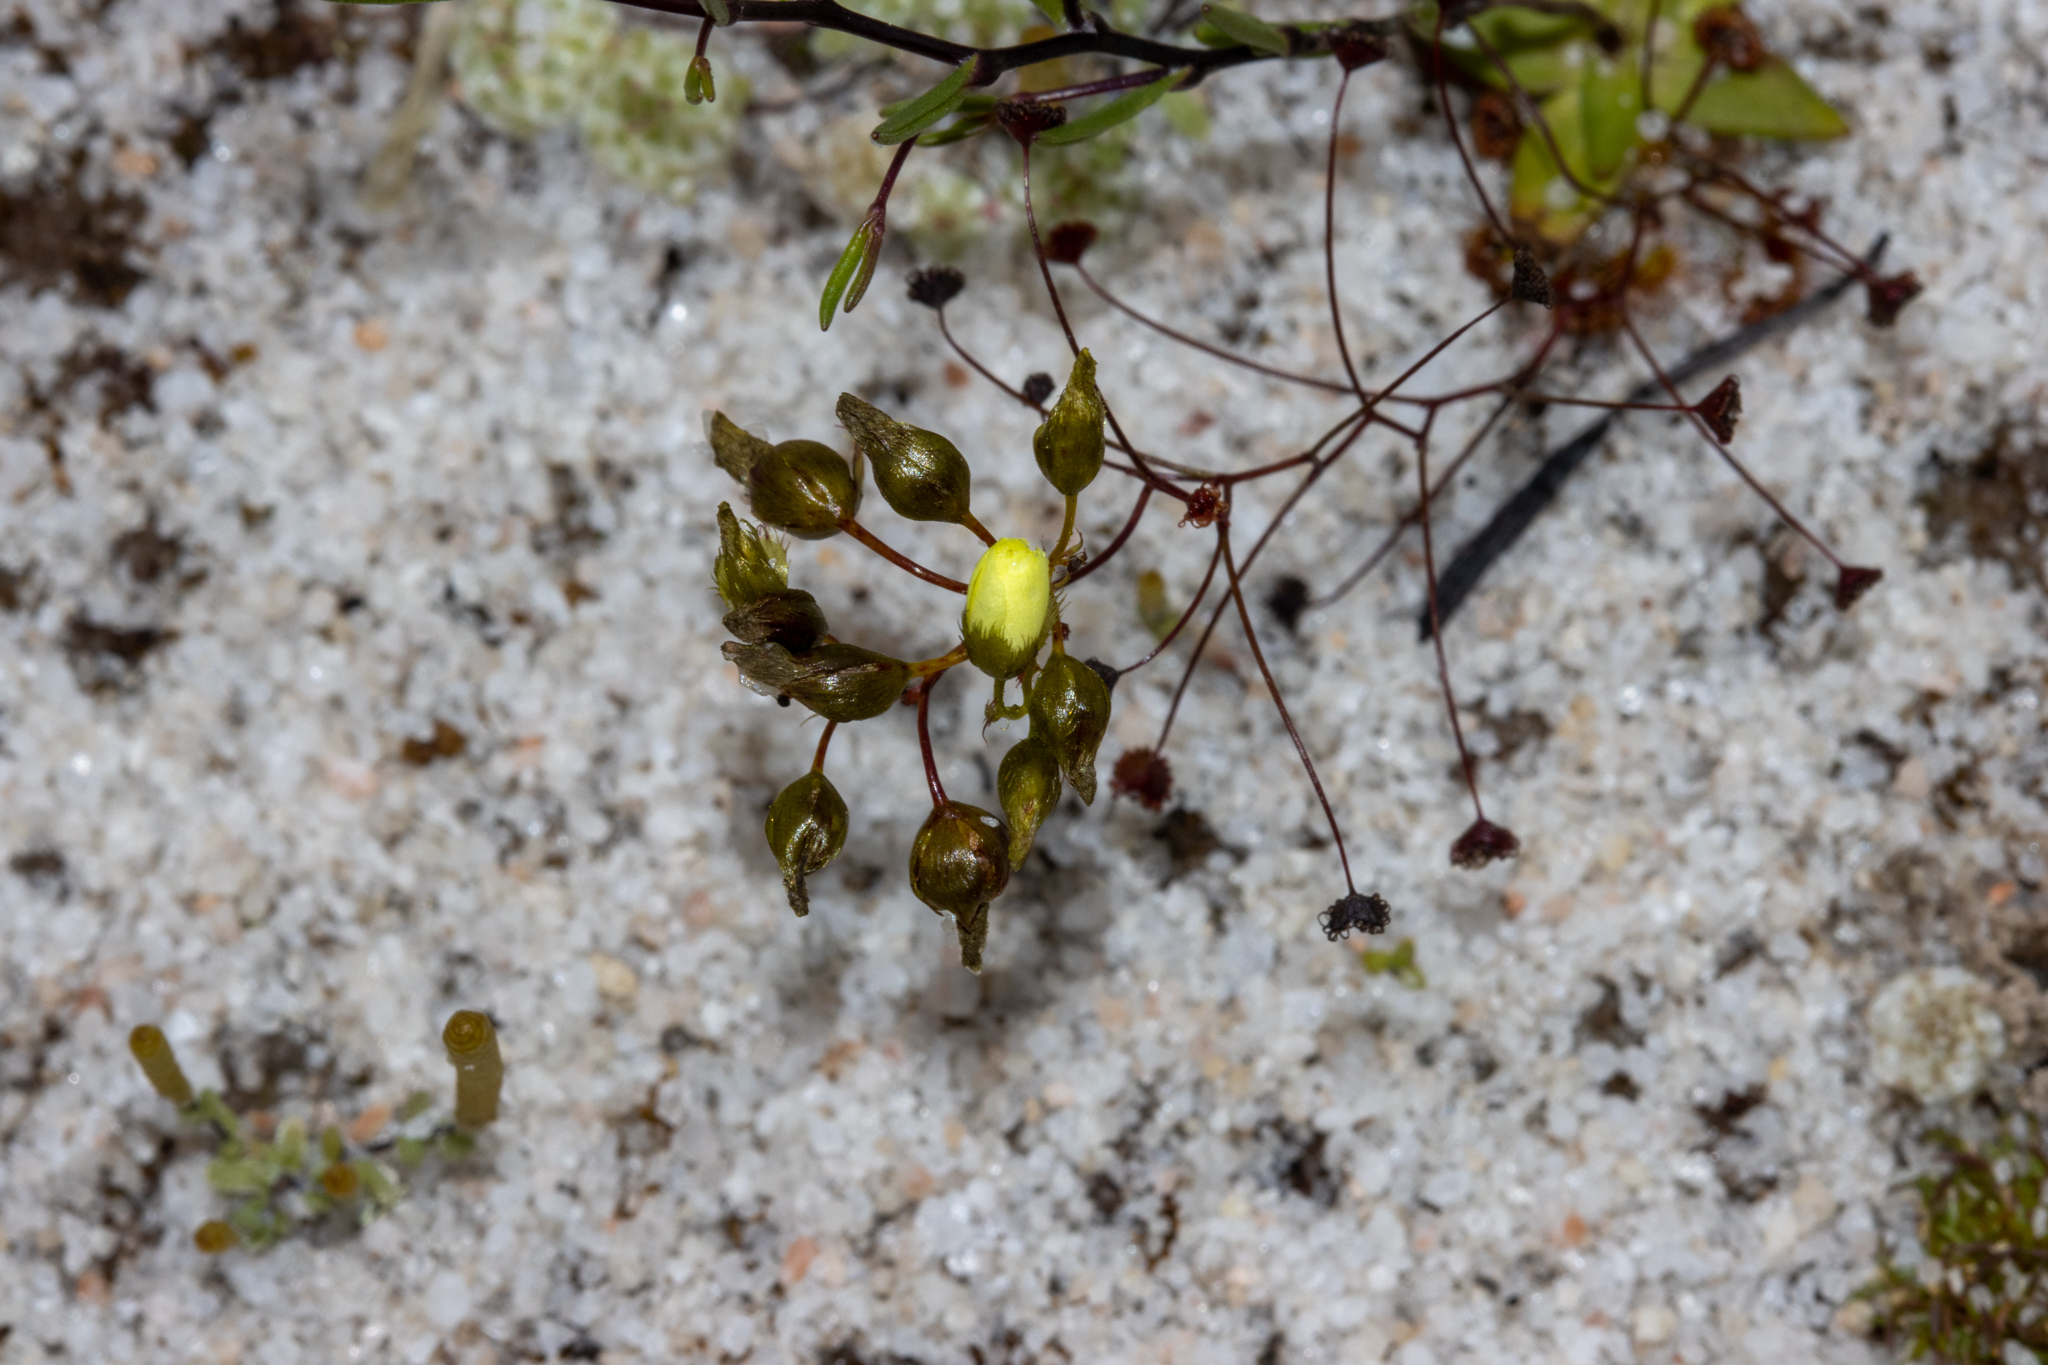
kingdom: Plantae
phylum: Tracheophyta
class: Magnoliopsida
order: Caryophyllales
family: Droseraceae
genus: Drosera
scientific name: Drosera zigzagia
